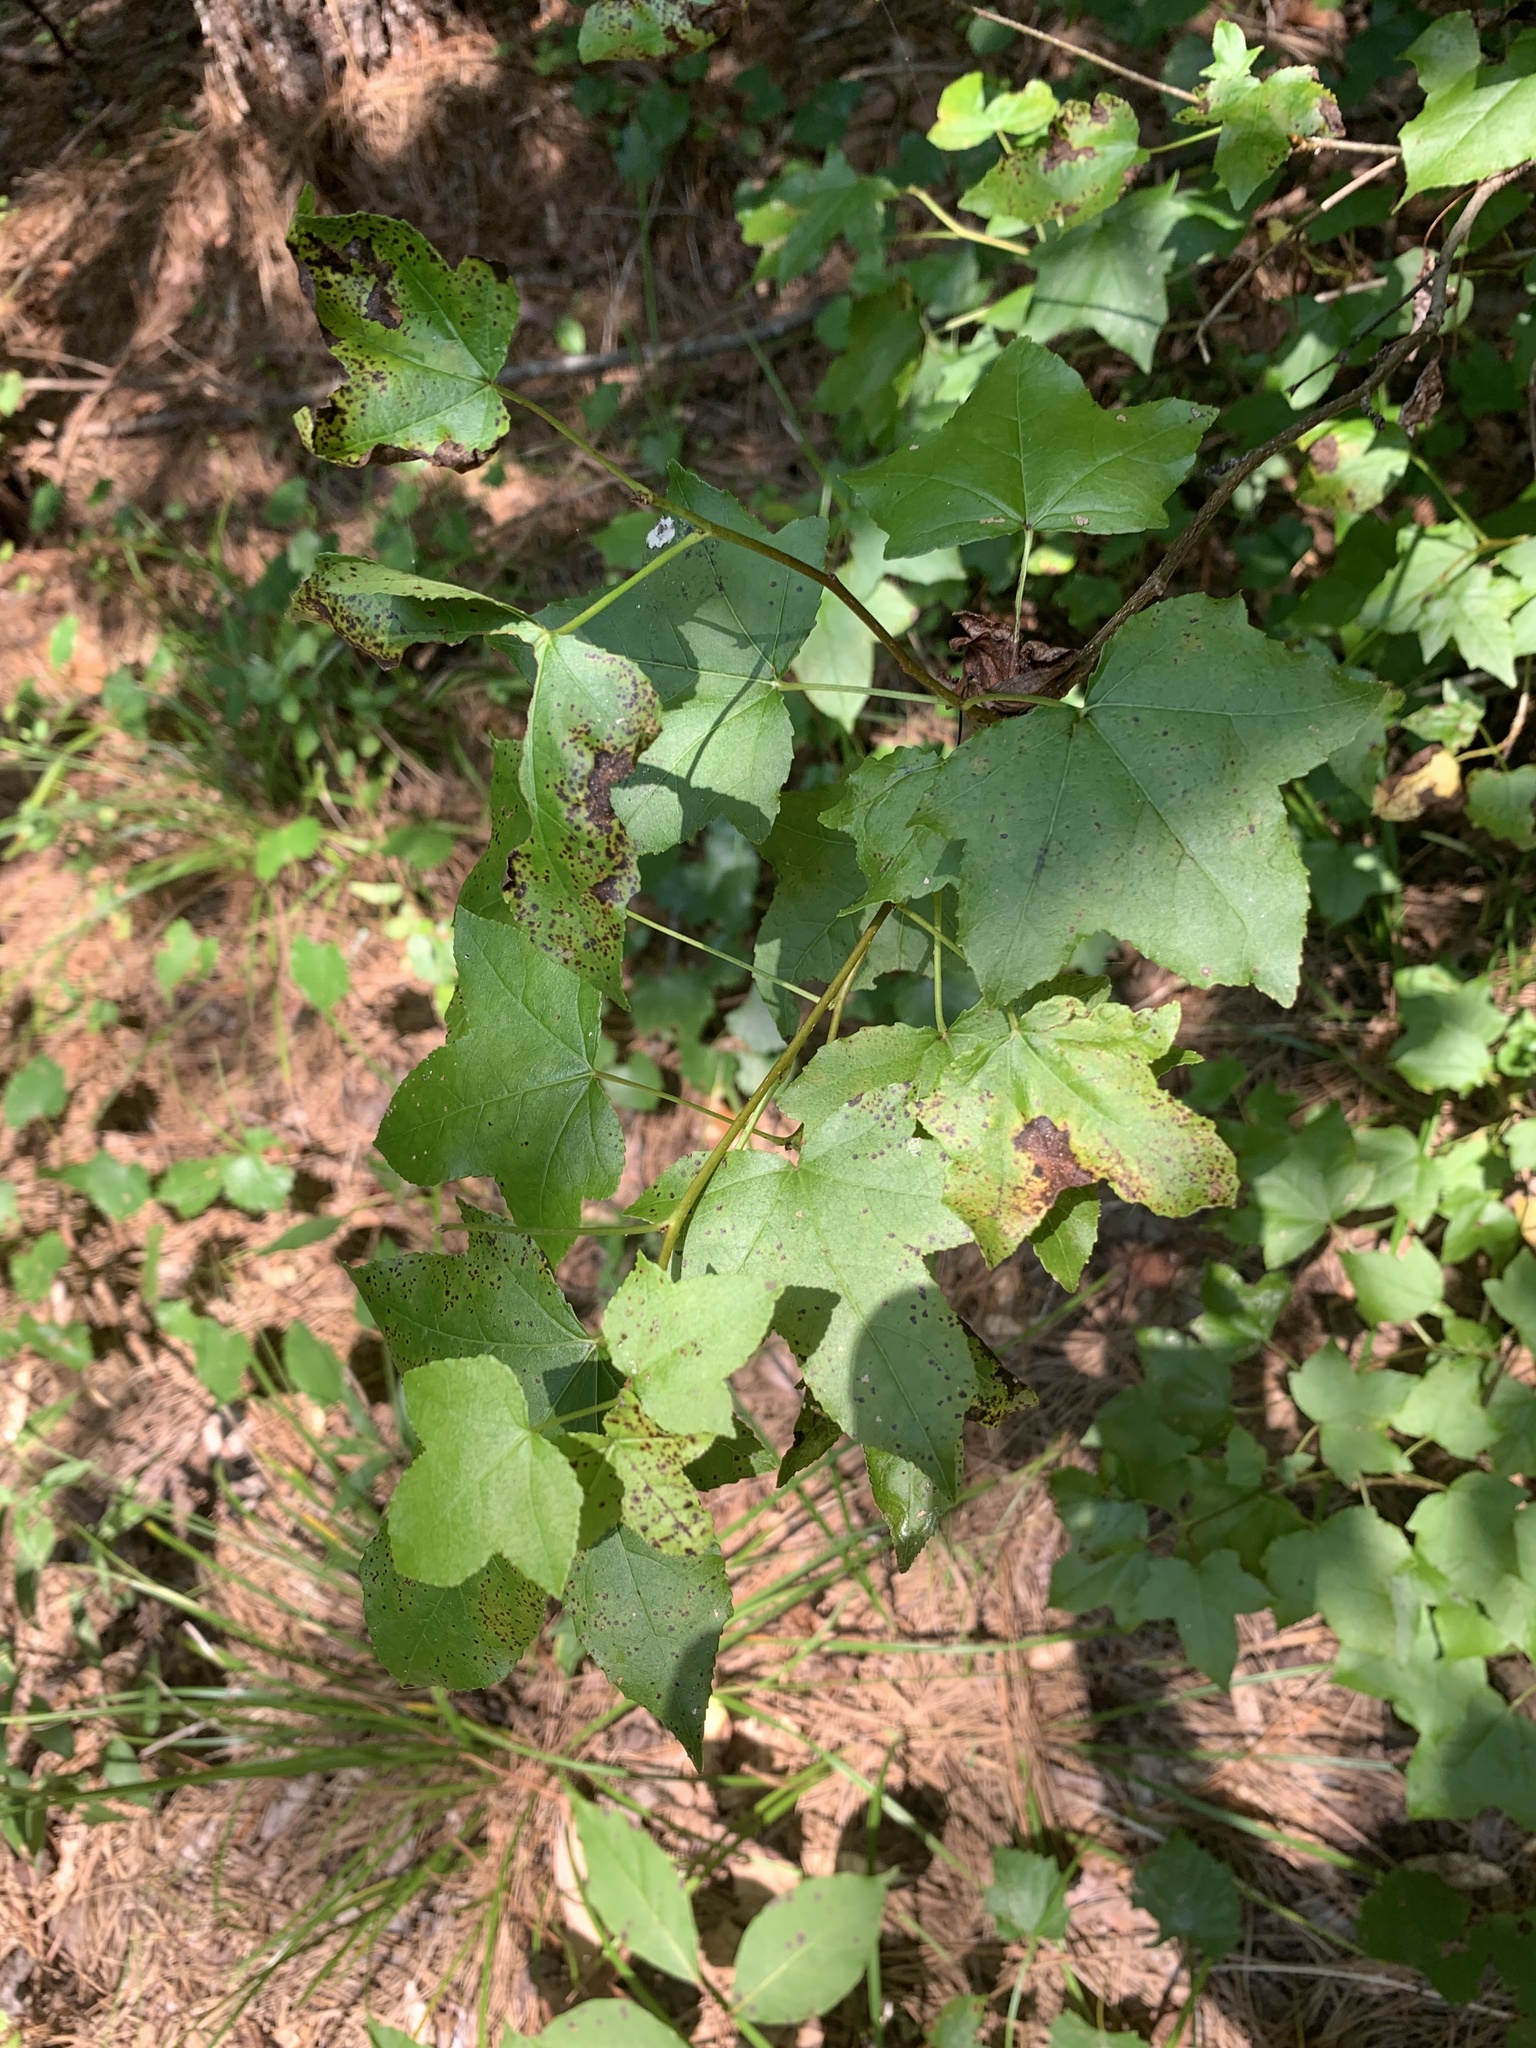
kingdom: Plantae
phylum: Tracheophyta
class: Magnoliopsida
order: Saxifragales
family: Altingiaceae
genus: Liquidambar
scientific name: Liquidambar styraciflua
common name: Sweet gum
